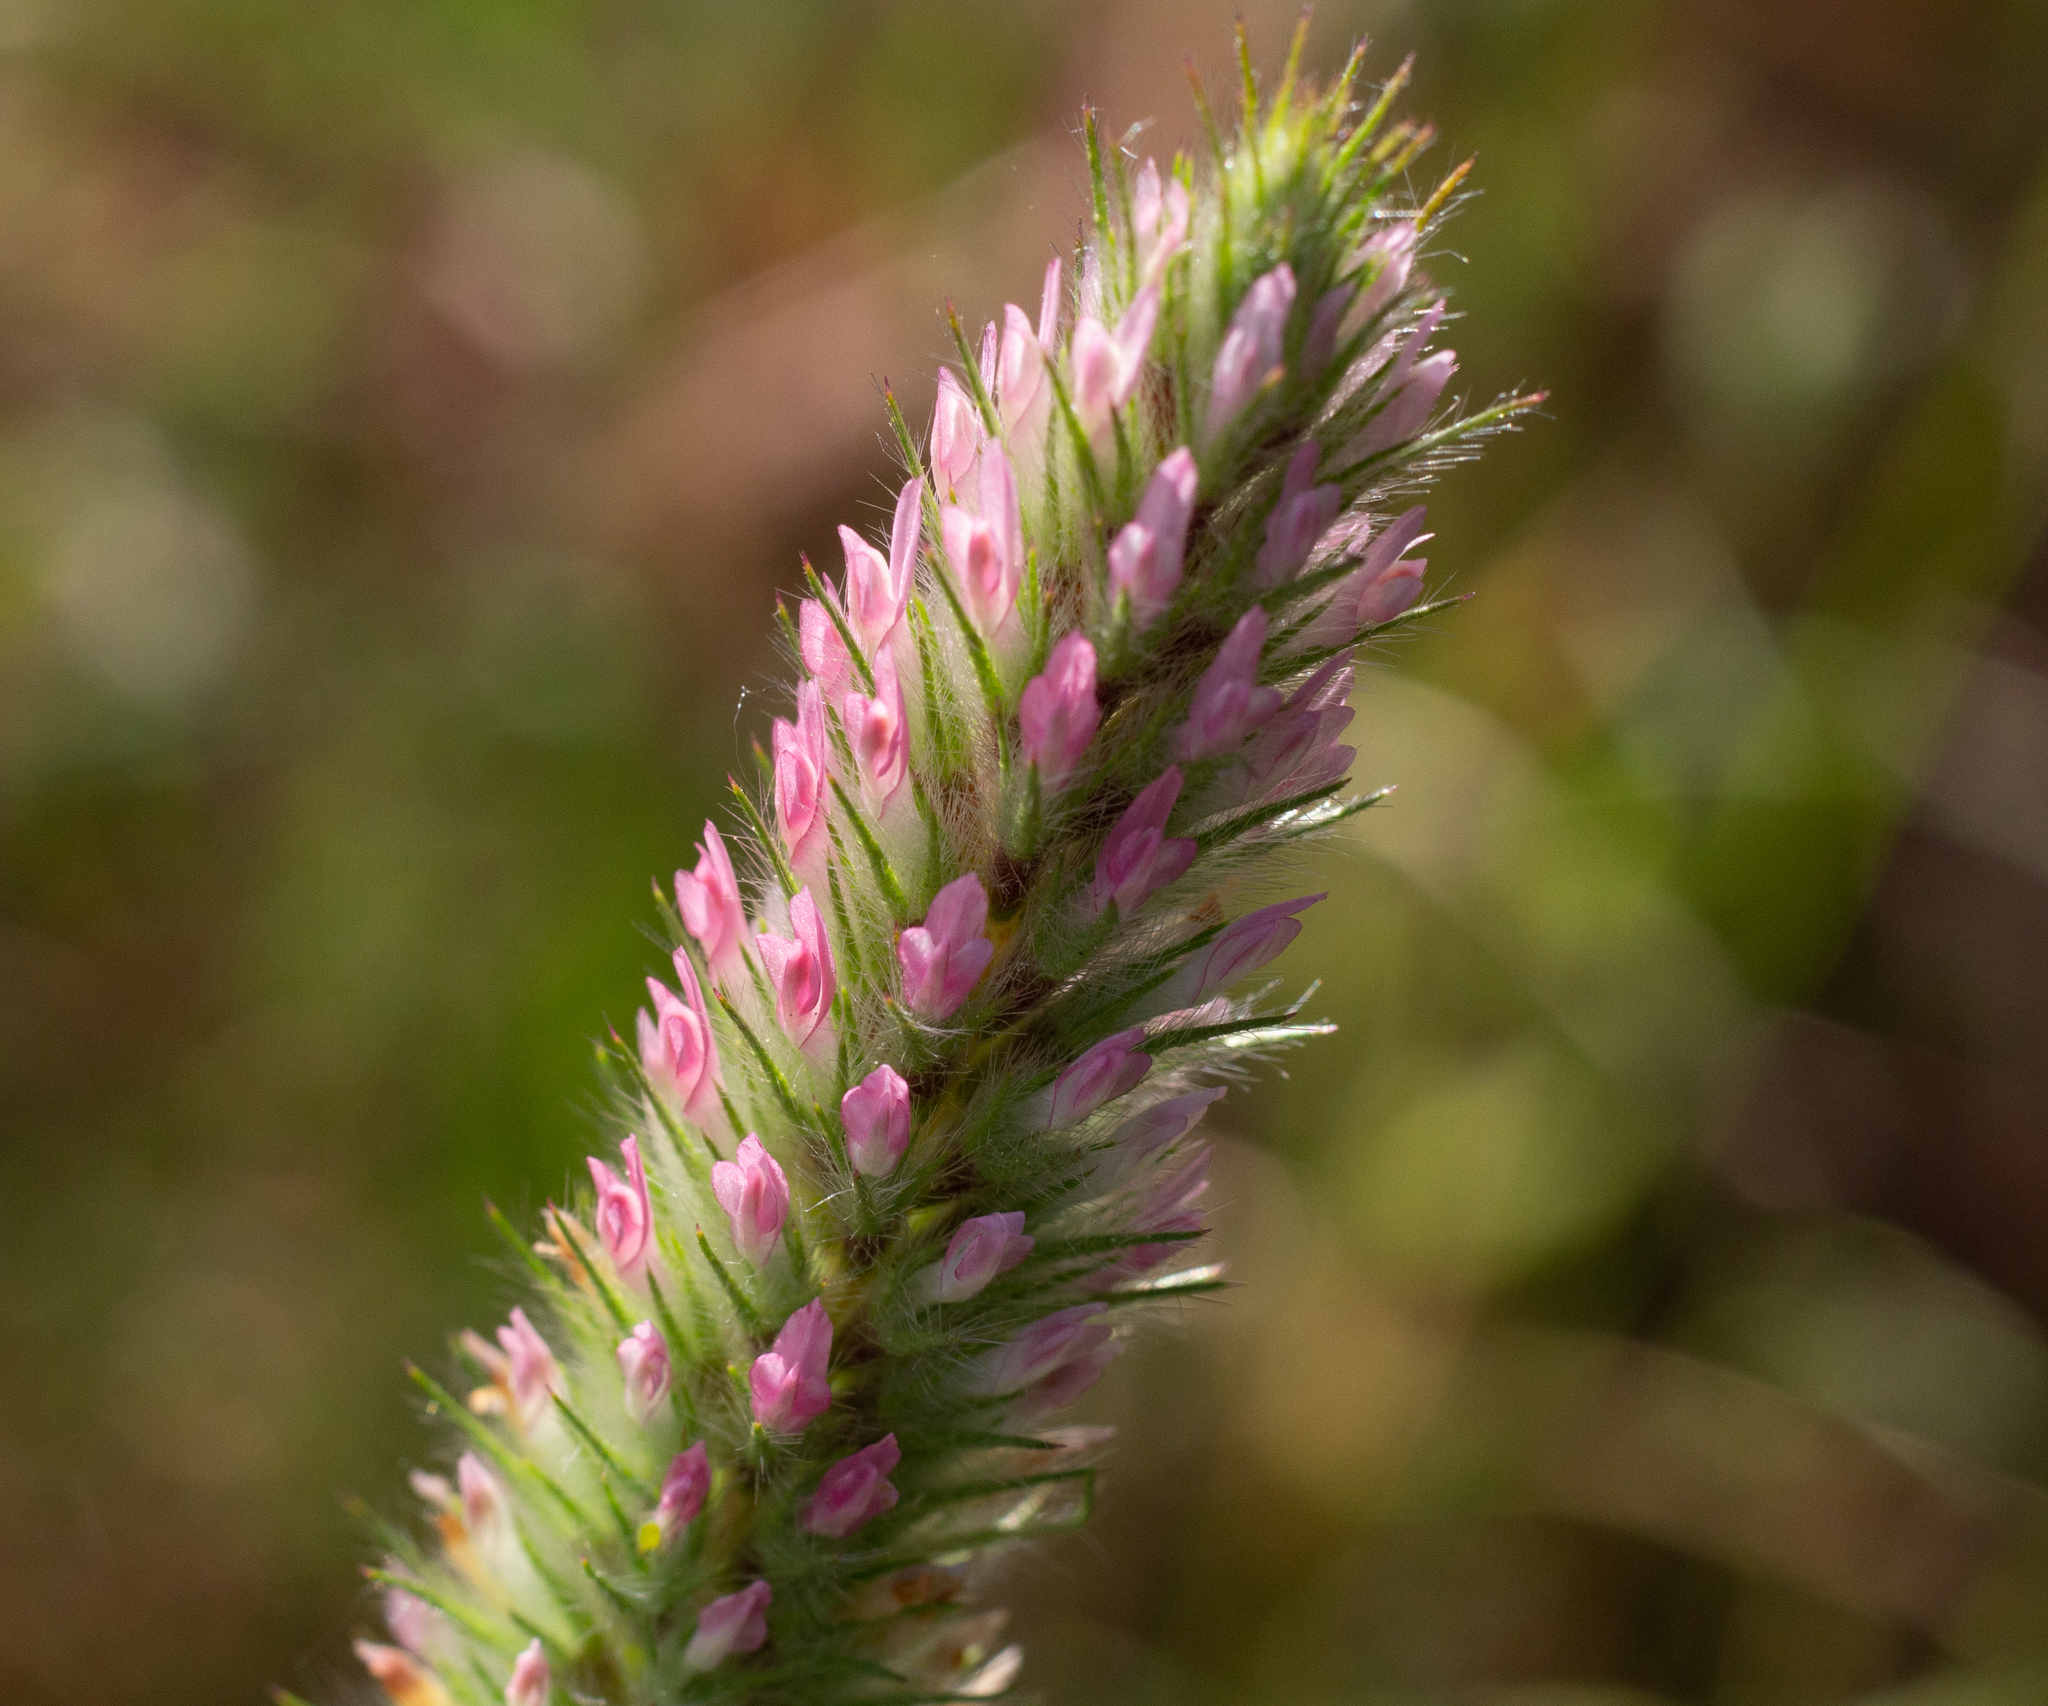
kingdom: Plantae
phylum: Tracheophyta
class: Magnoliopsida
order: Fabales
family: Fabaceae
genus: Trifolium
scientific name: Trifolium angustifolium
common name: Narrow clover
